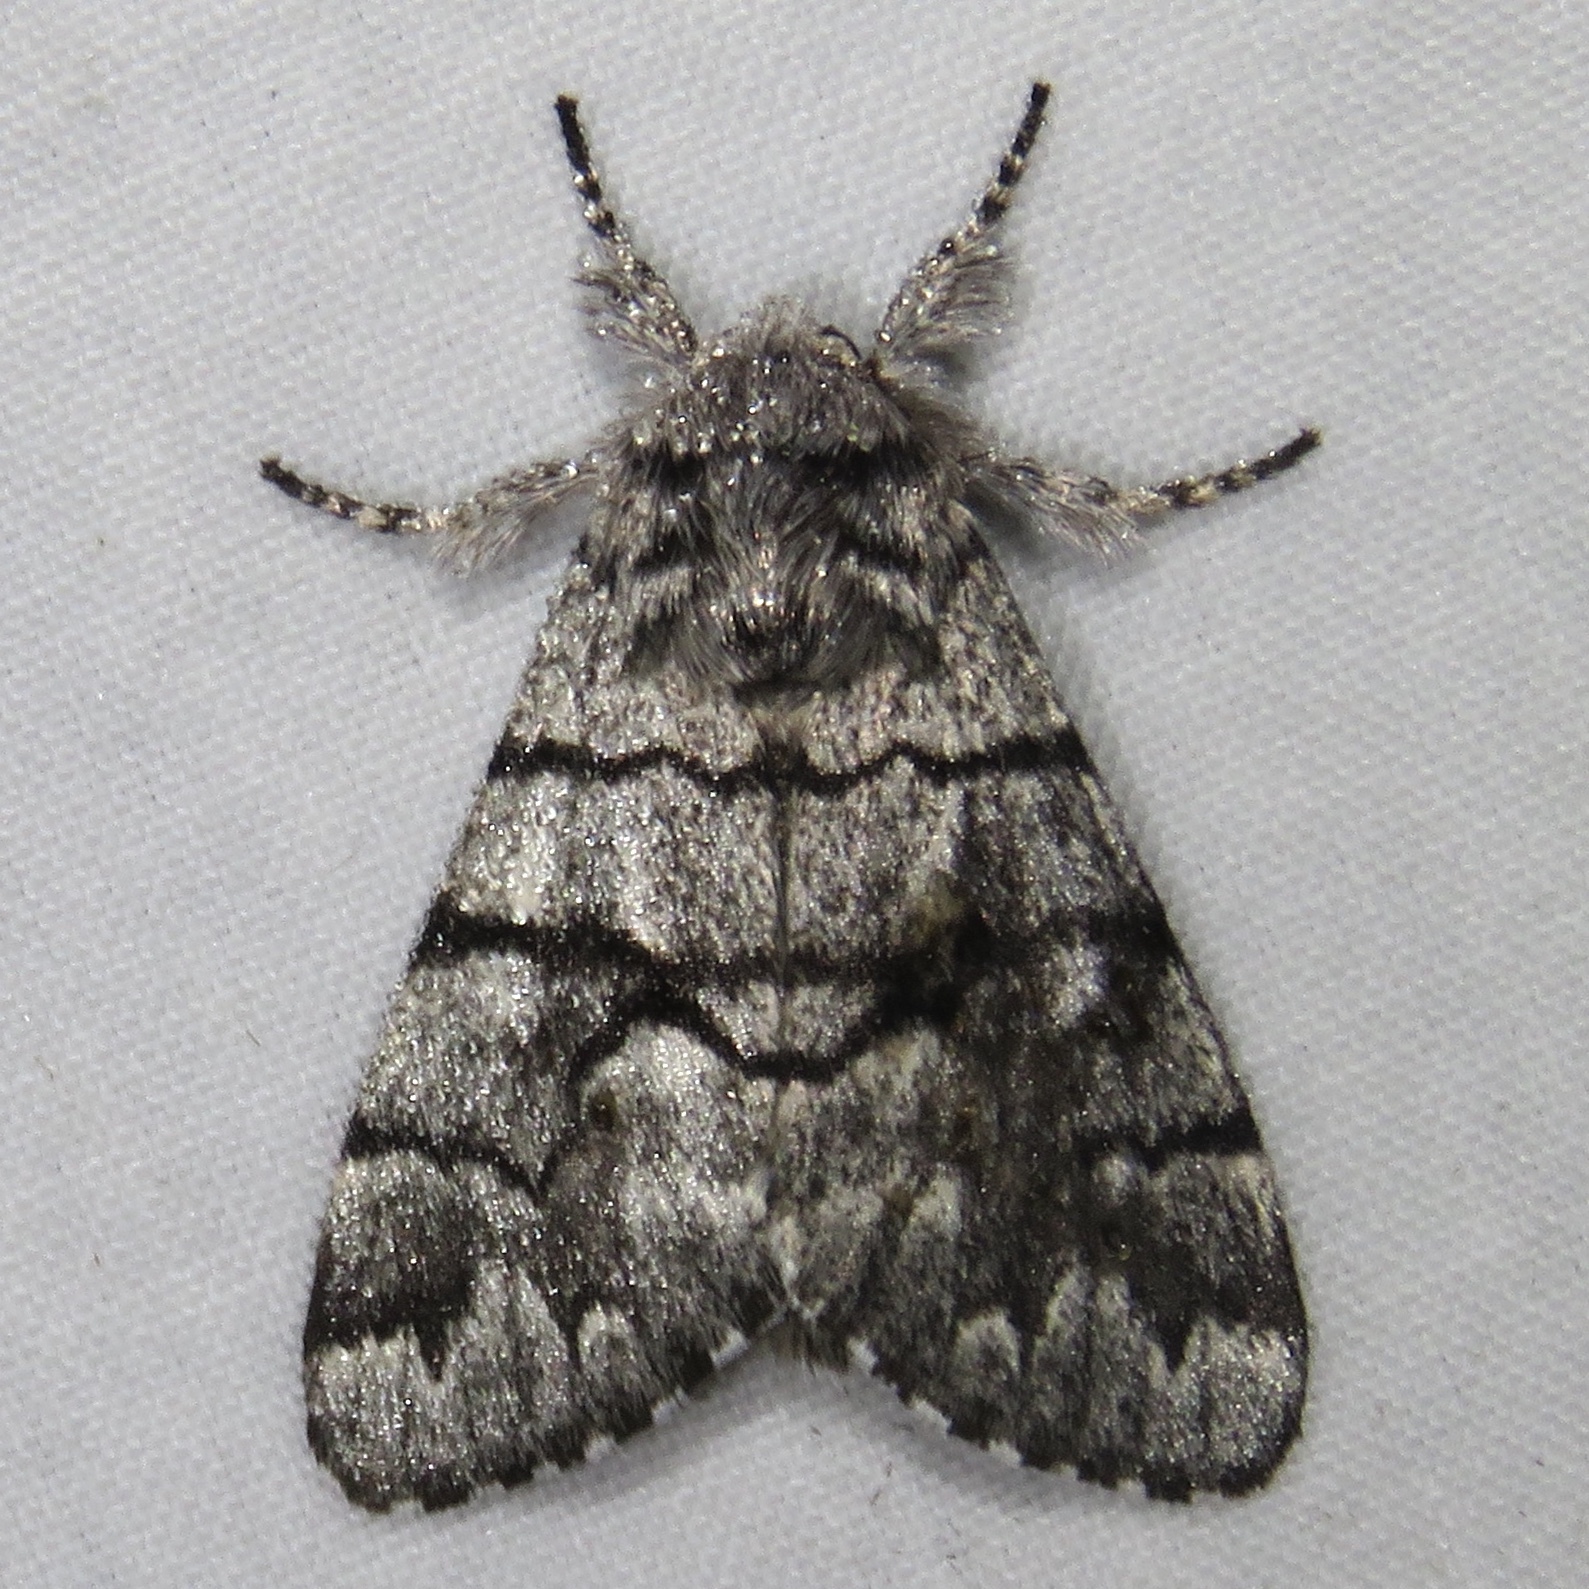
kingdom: Animalia
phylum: Arthropoda
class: Insecta
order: Lepidoptera
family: Noctuidae
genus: Panthea
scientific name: Panthea furcilla
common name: Eastern panthea moth
